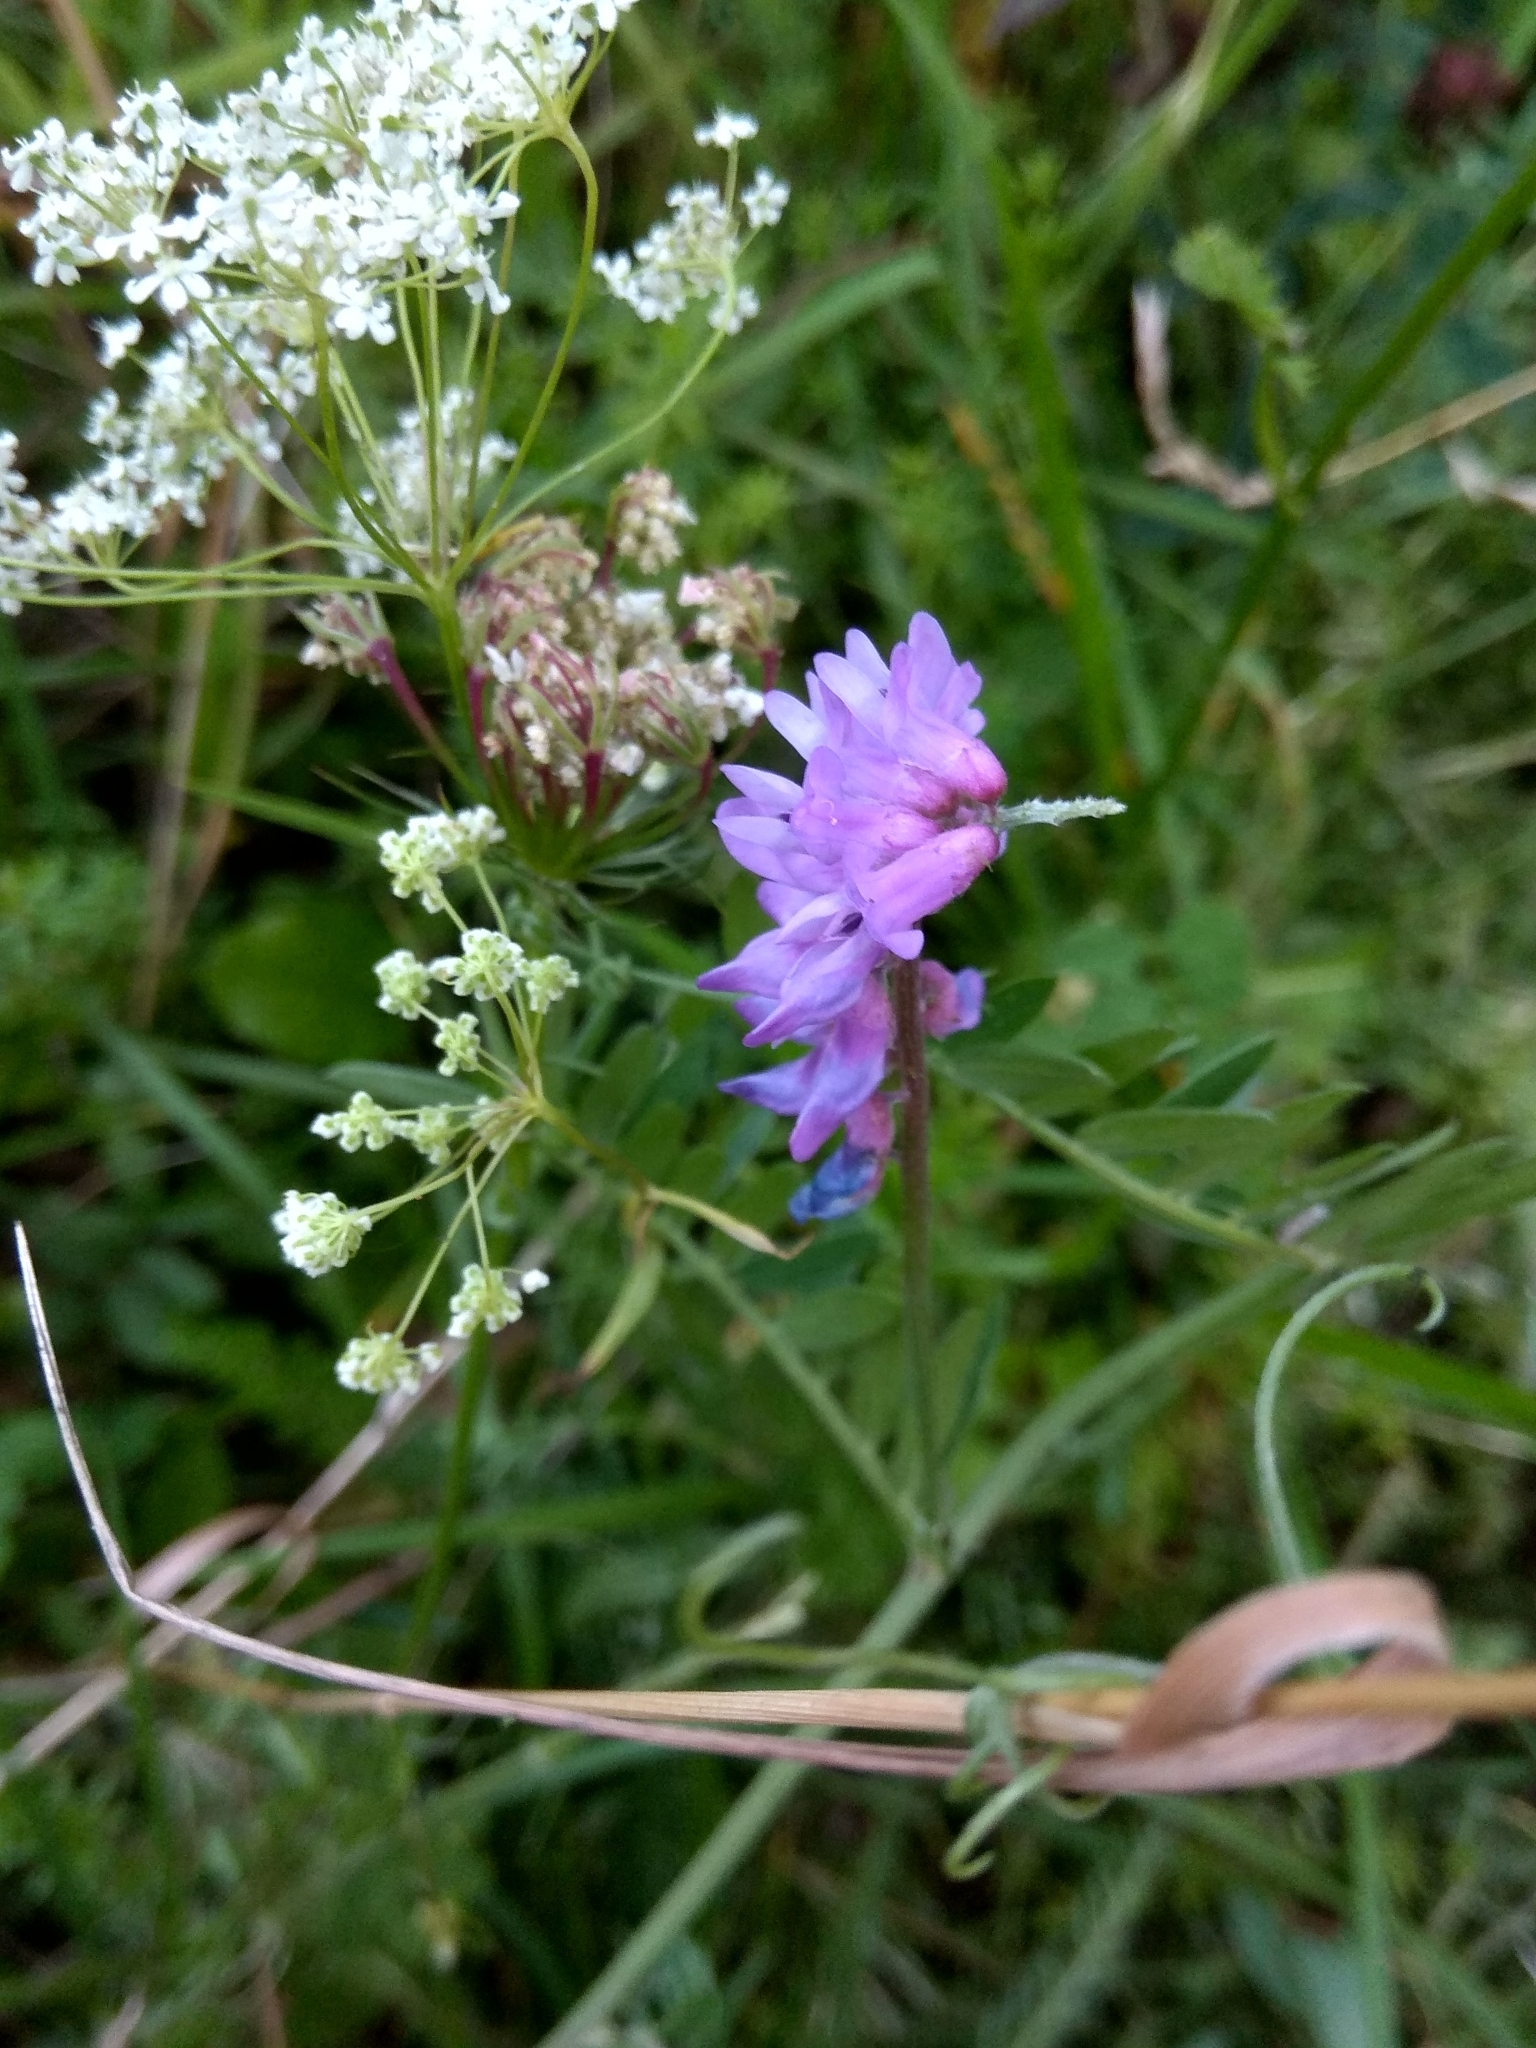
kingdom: Plantae
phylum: Tracheophyta
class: Magnoliopsida
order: Fabales
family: Fabaceae
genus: Vicia
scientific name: Vicia cracca
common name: Bird vetch
